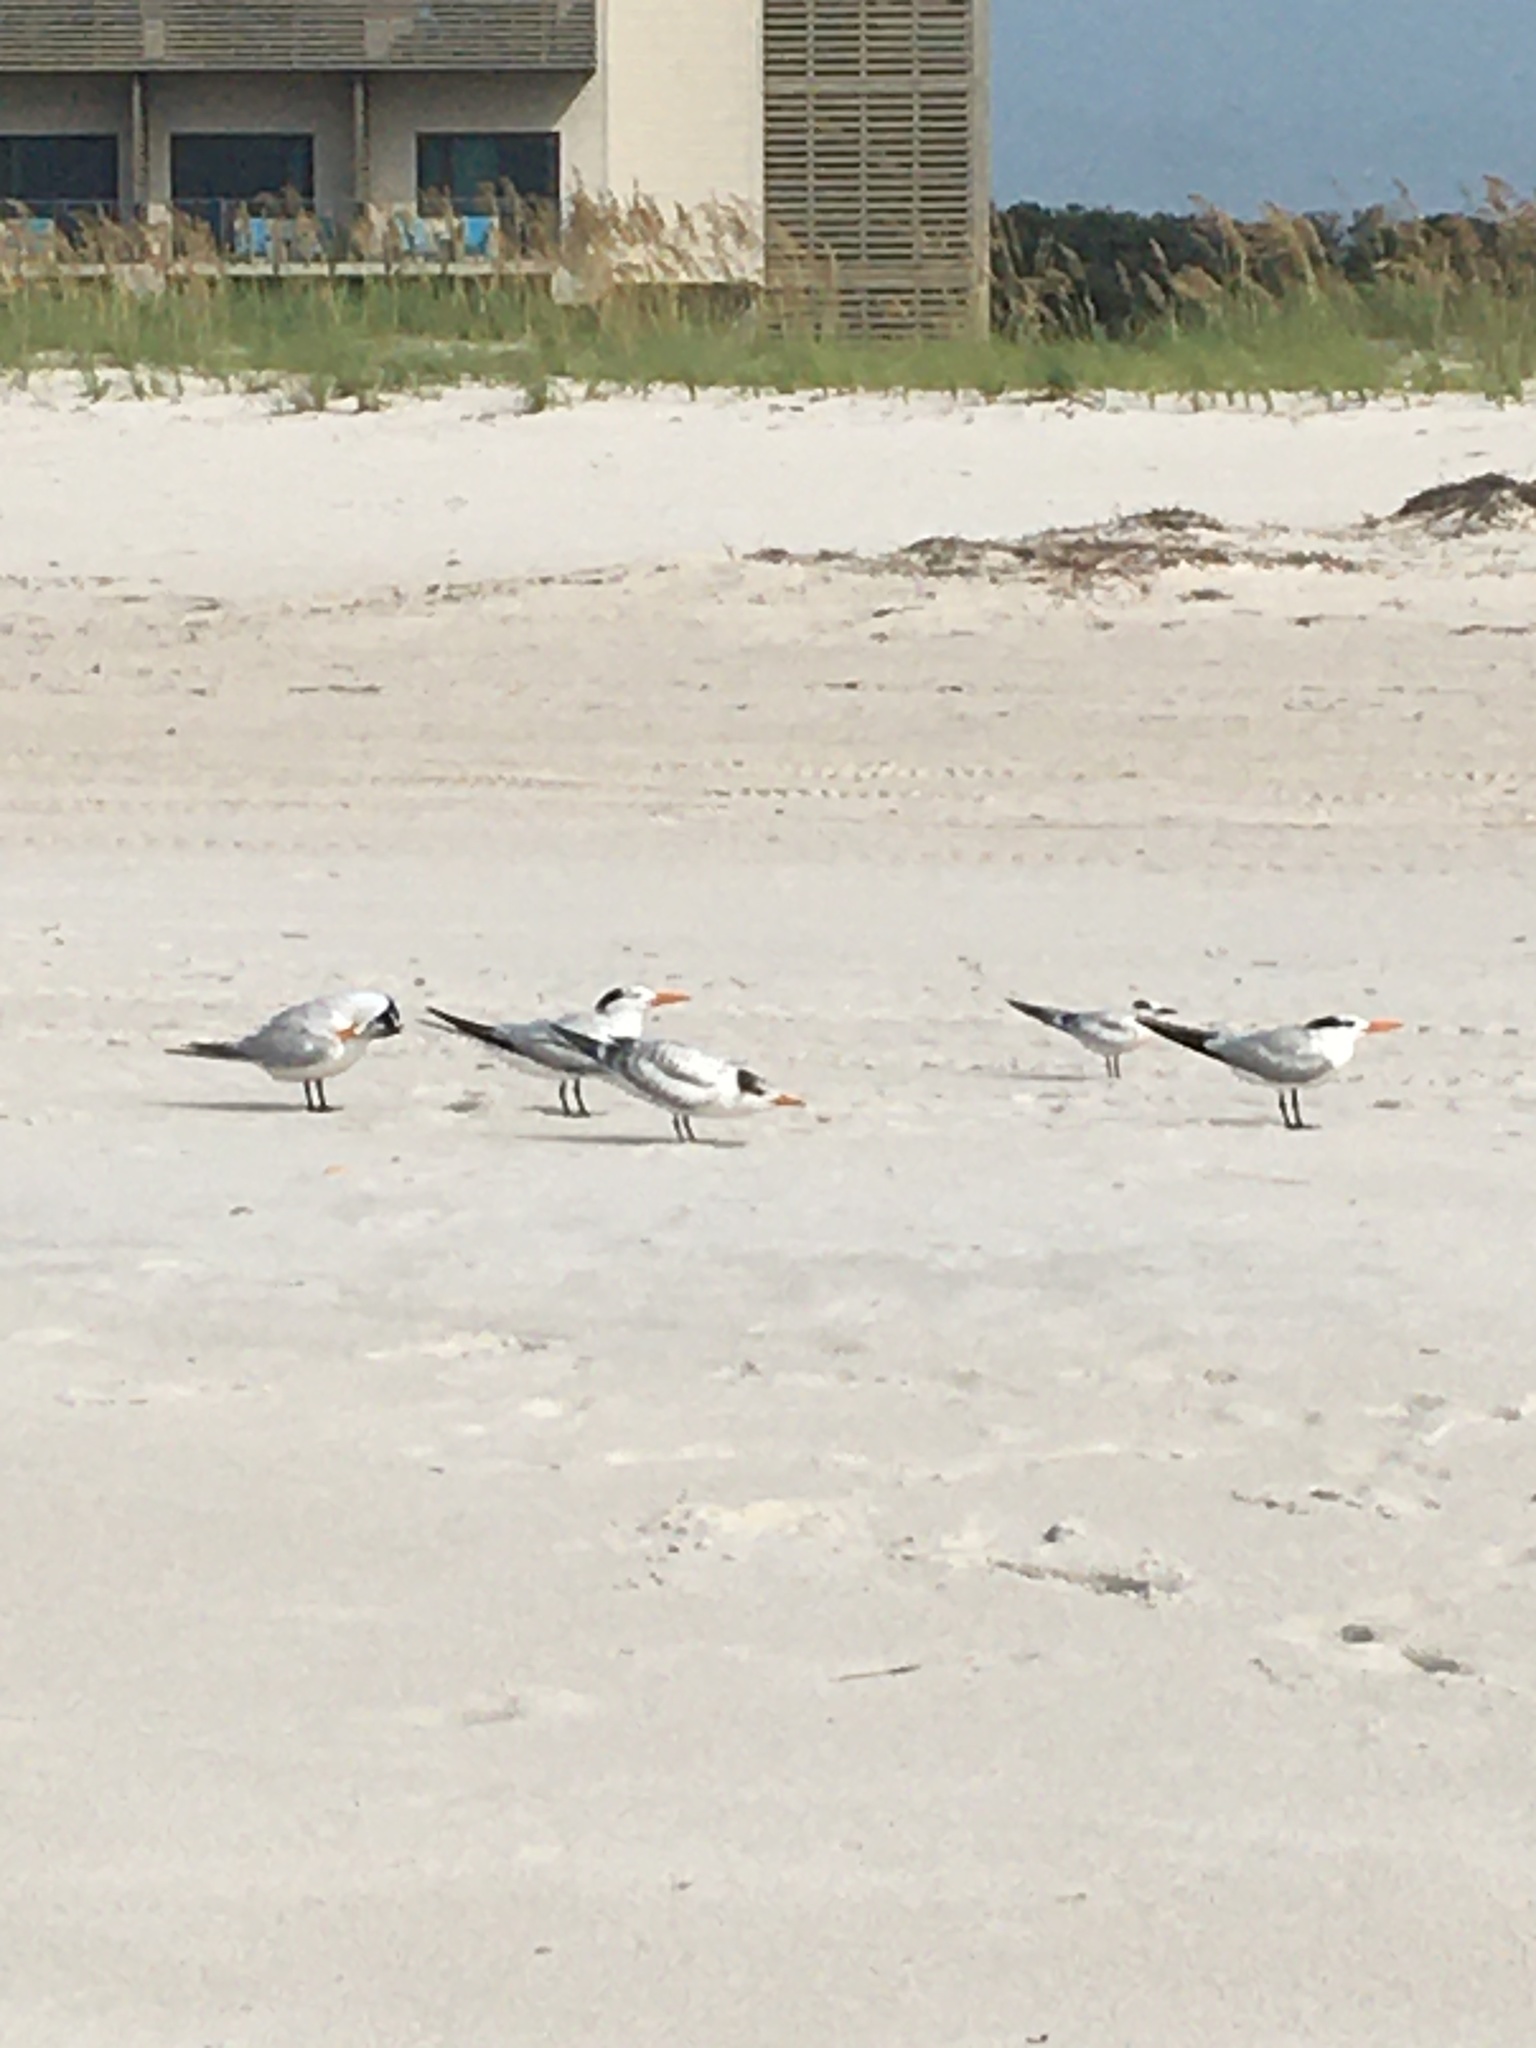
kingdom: Animalia
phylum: Chordata
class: Aves
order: Charadriiformes
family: Laridae
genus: Thalasseus
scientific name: Thalasseus maximus
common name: Royal tern
